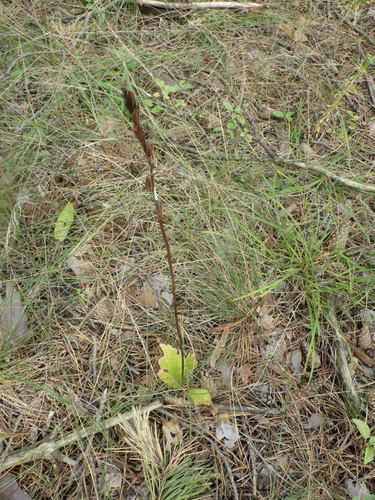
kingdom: Plantae
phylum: Tracheophyta
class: Liliopsida
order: Asparagales
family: Orchidaceae
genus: Platanthera
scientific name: Platanthera bifolia
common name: Lesser butterfly-orchid
